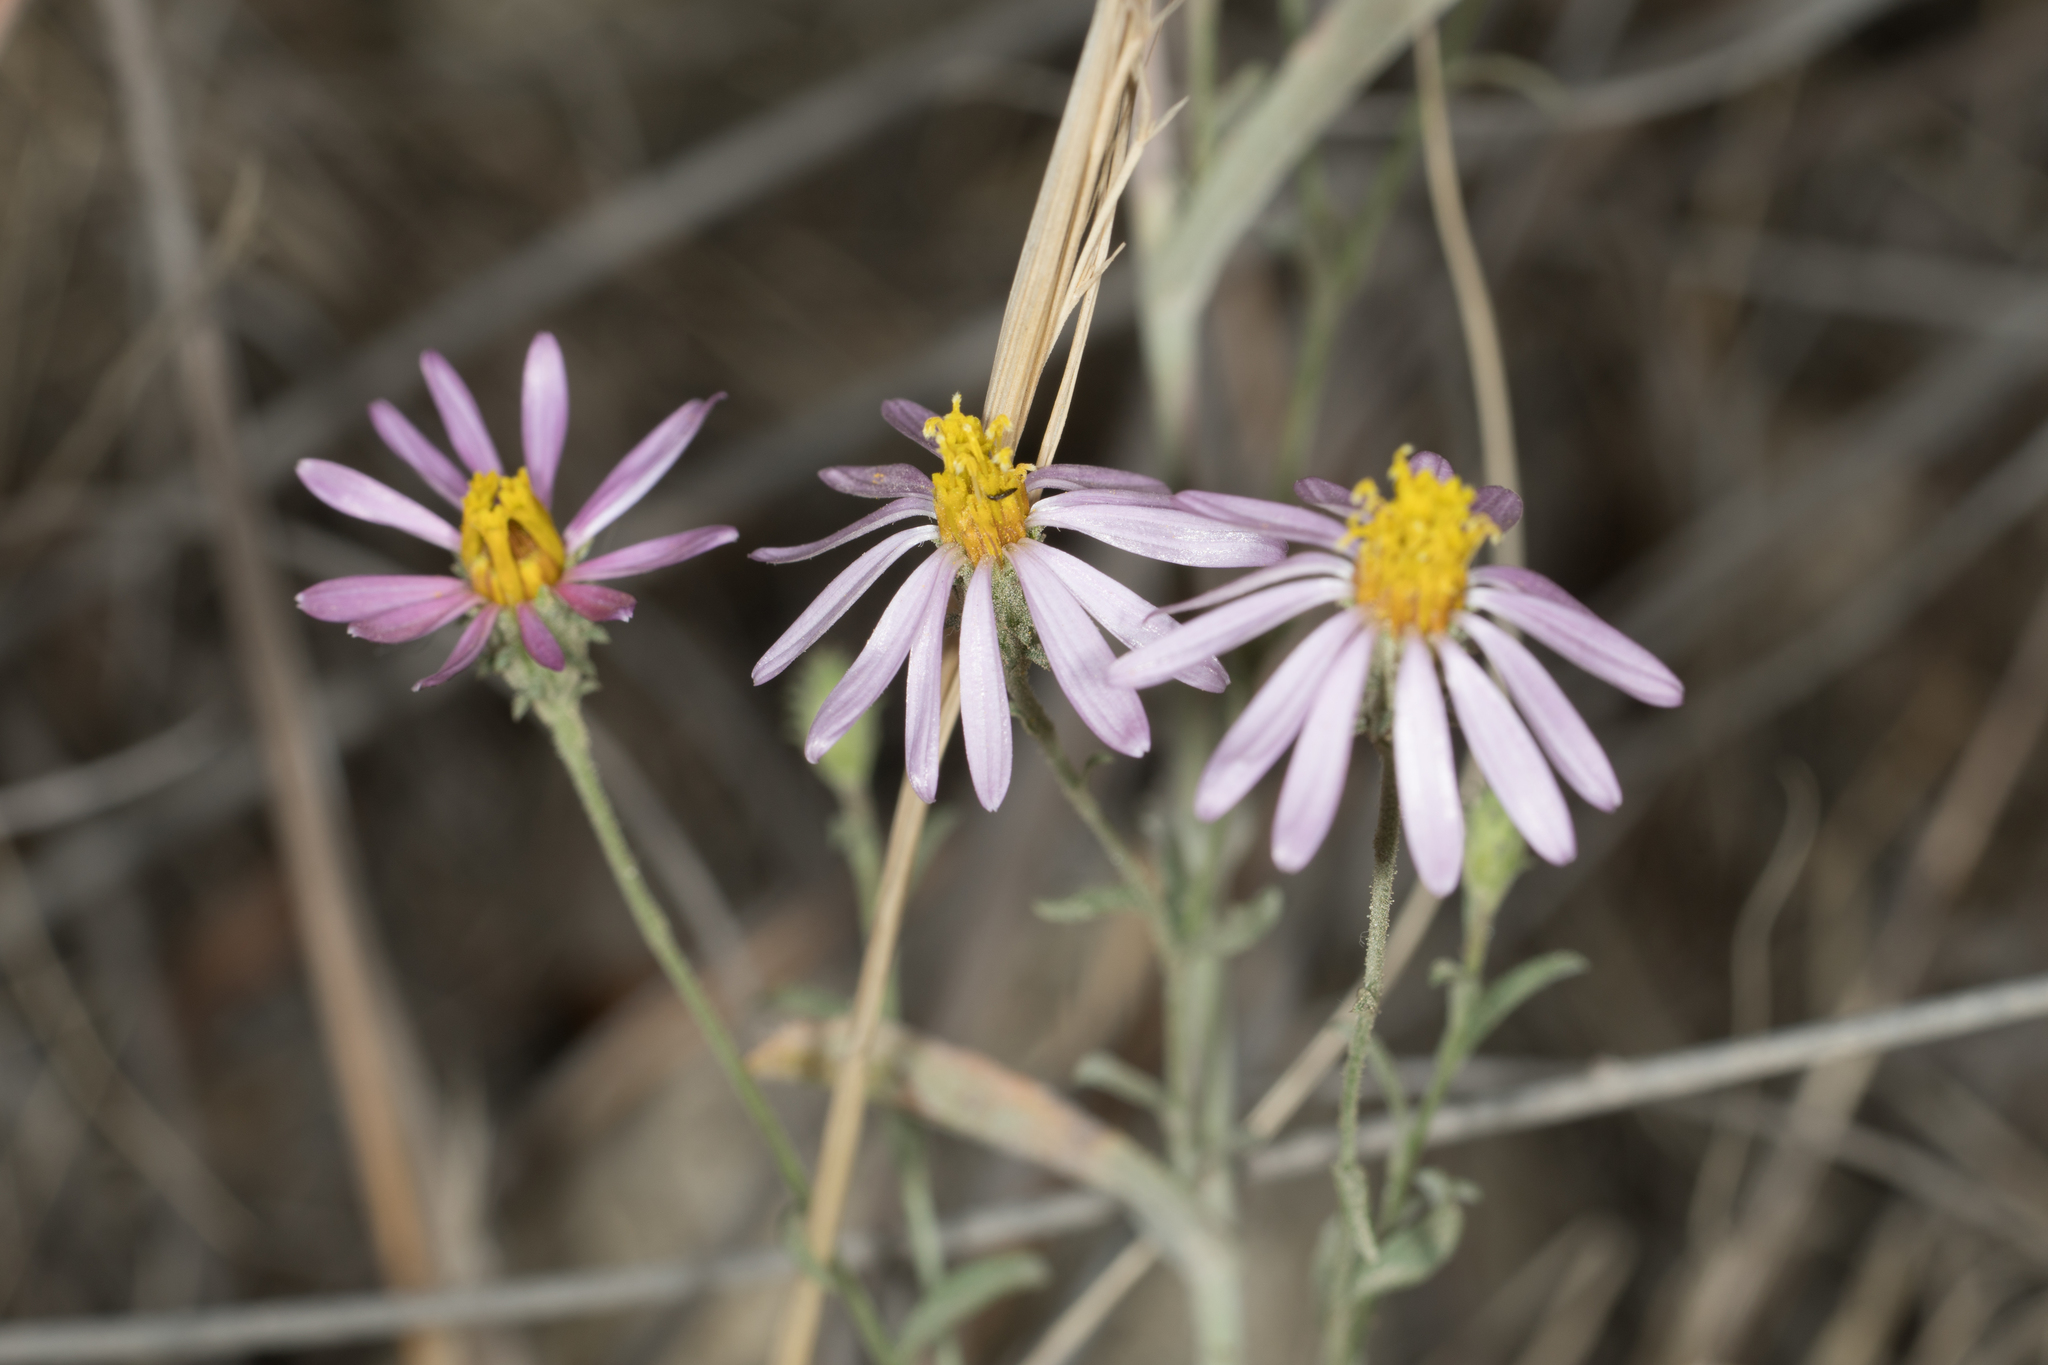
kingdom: Plantae
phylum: Tracheophyta
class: Magnoliopsida
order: Asterales
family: Asteraceae
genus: Corethrogyne
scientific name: Corethrogyne filaginifolia
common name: Sand-aster
